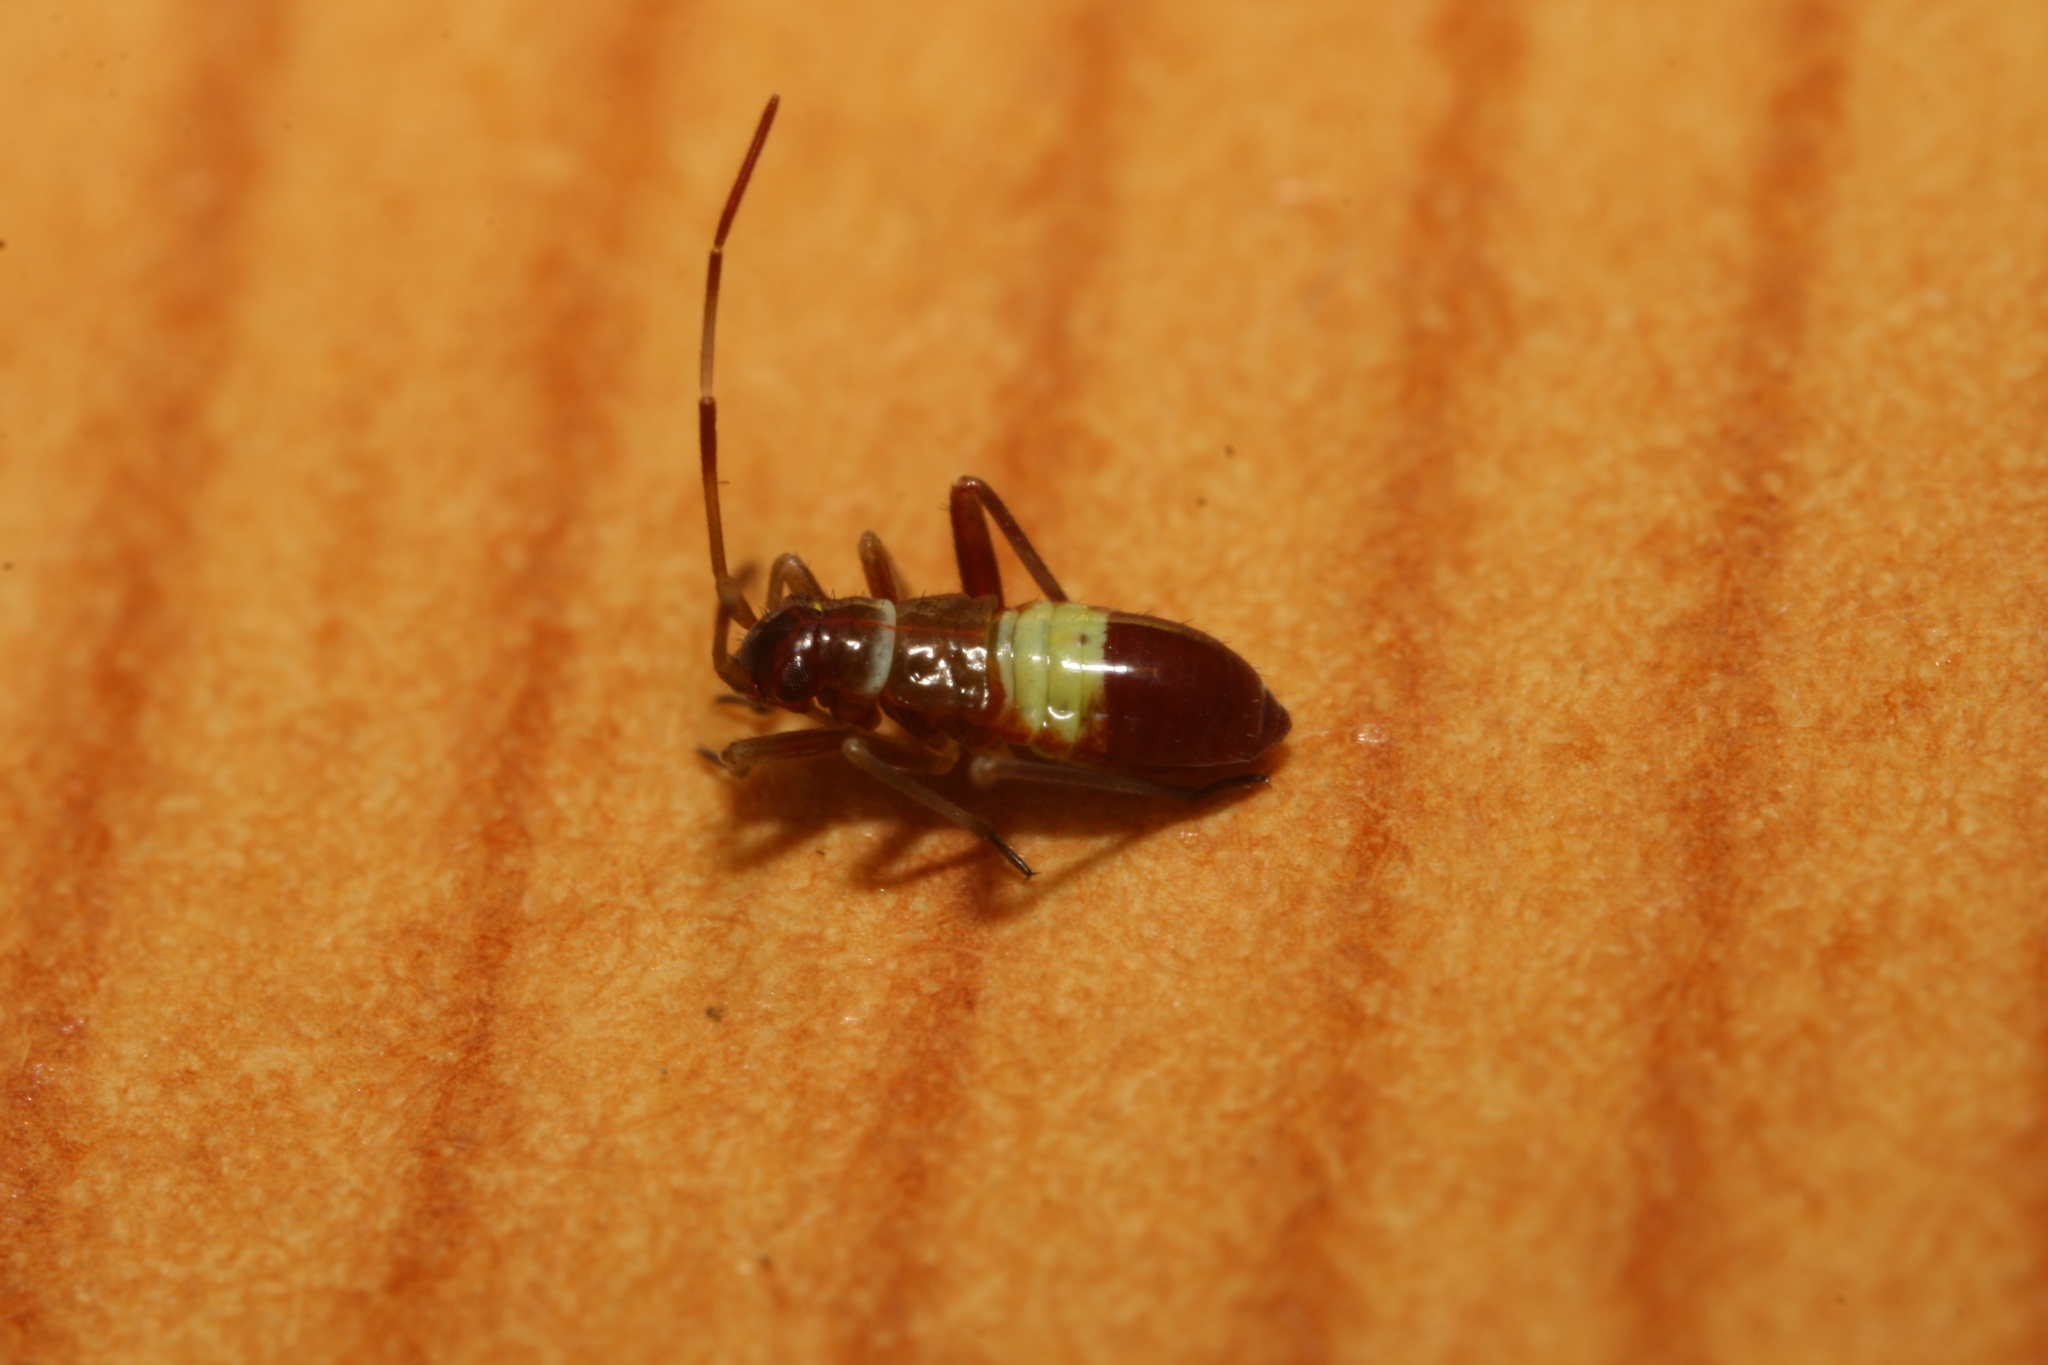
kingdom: Animalia
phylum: Arthropoda
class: Insecta
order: Hemiptera
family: Miridae
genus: Closterotomus
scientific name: Closterotomus biclavatus
